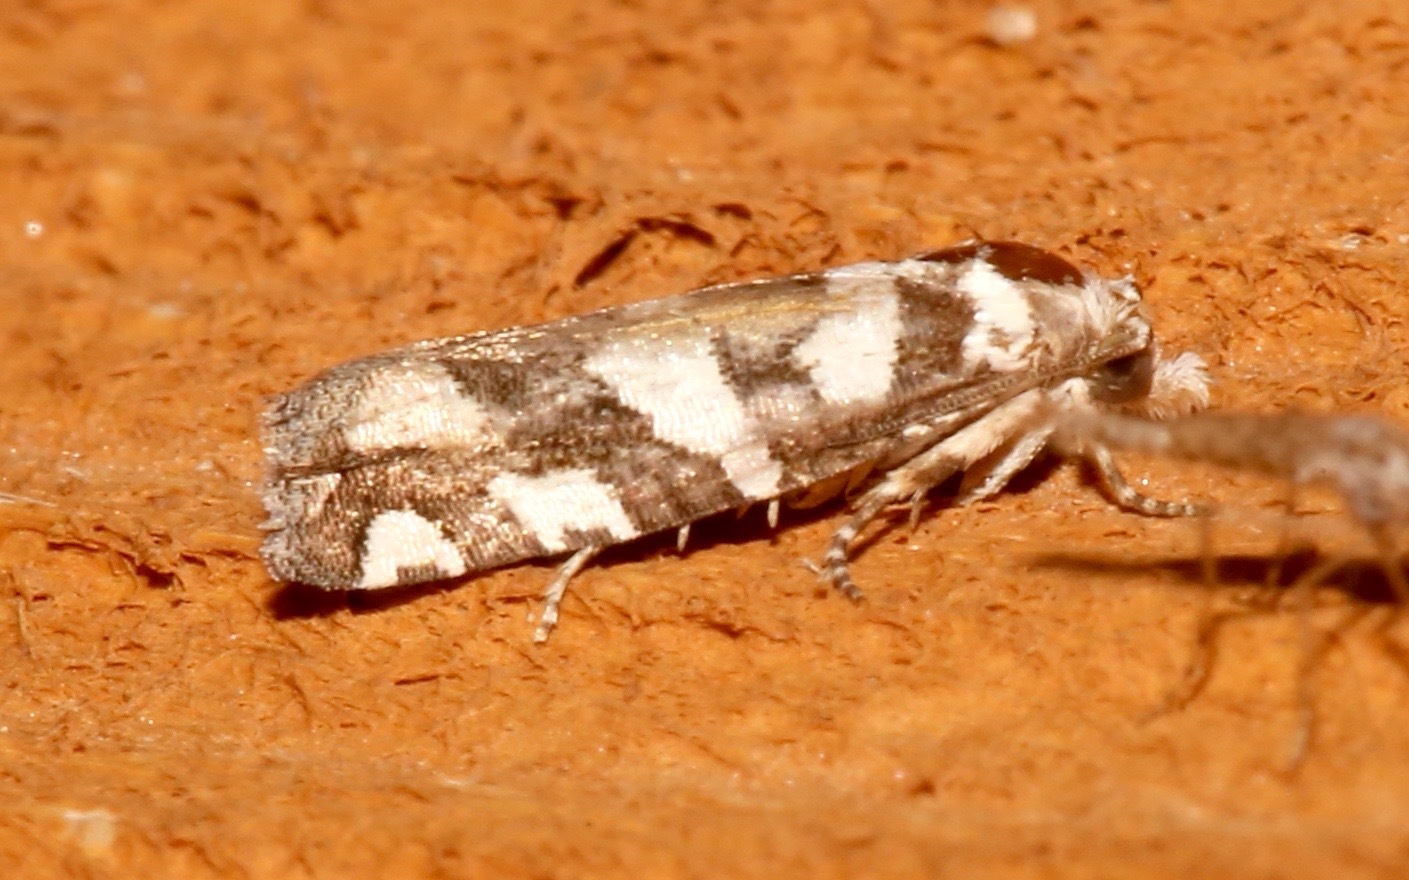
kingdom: Animalia
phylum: Arthropoda
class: Insecta
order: Lepidoptera
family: Tortricidae
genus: Pelochrista
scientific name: Pelochrista robinsonana
